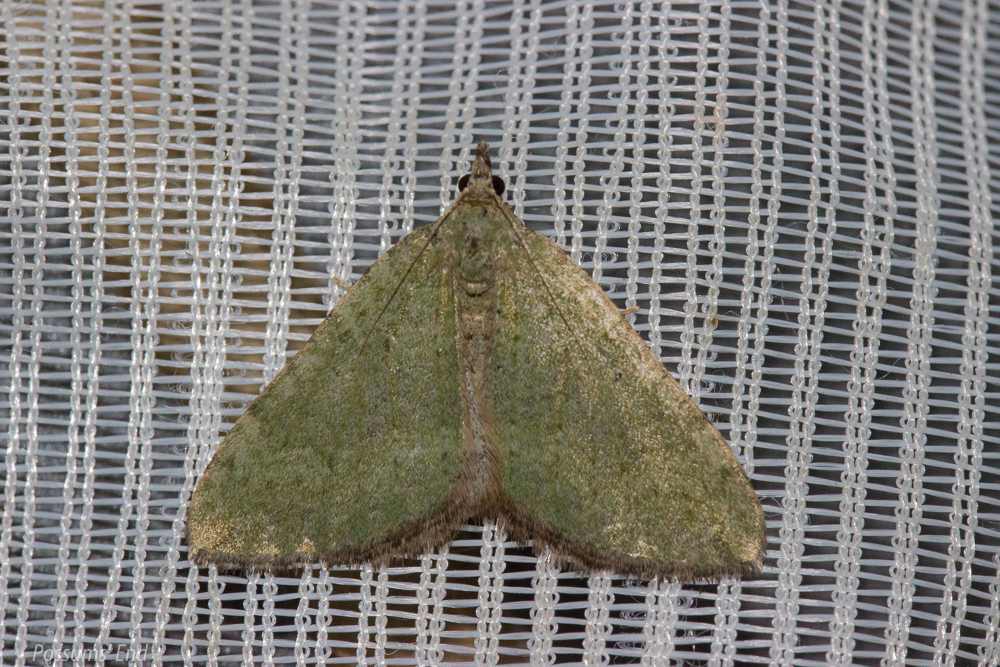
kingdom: Animalia
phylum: Arthropoda
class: Insecta
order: Lepidoptera
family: Geometridae
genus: Epyaxa
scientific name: Epyaxa rosearia
